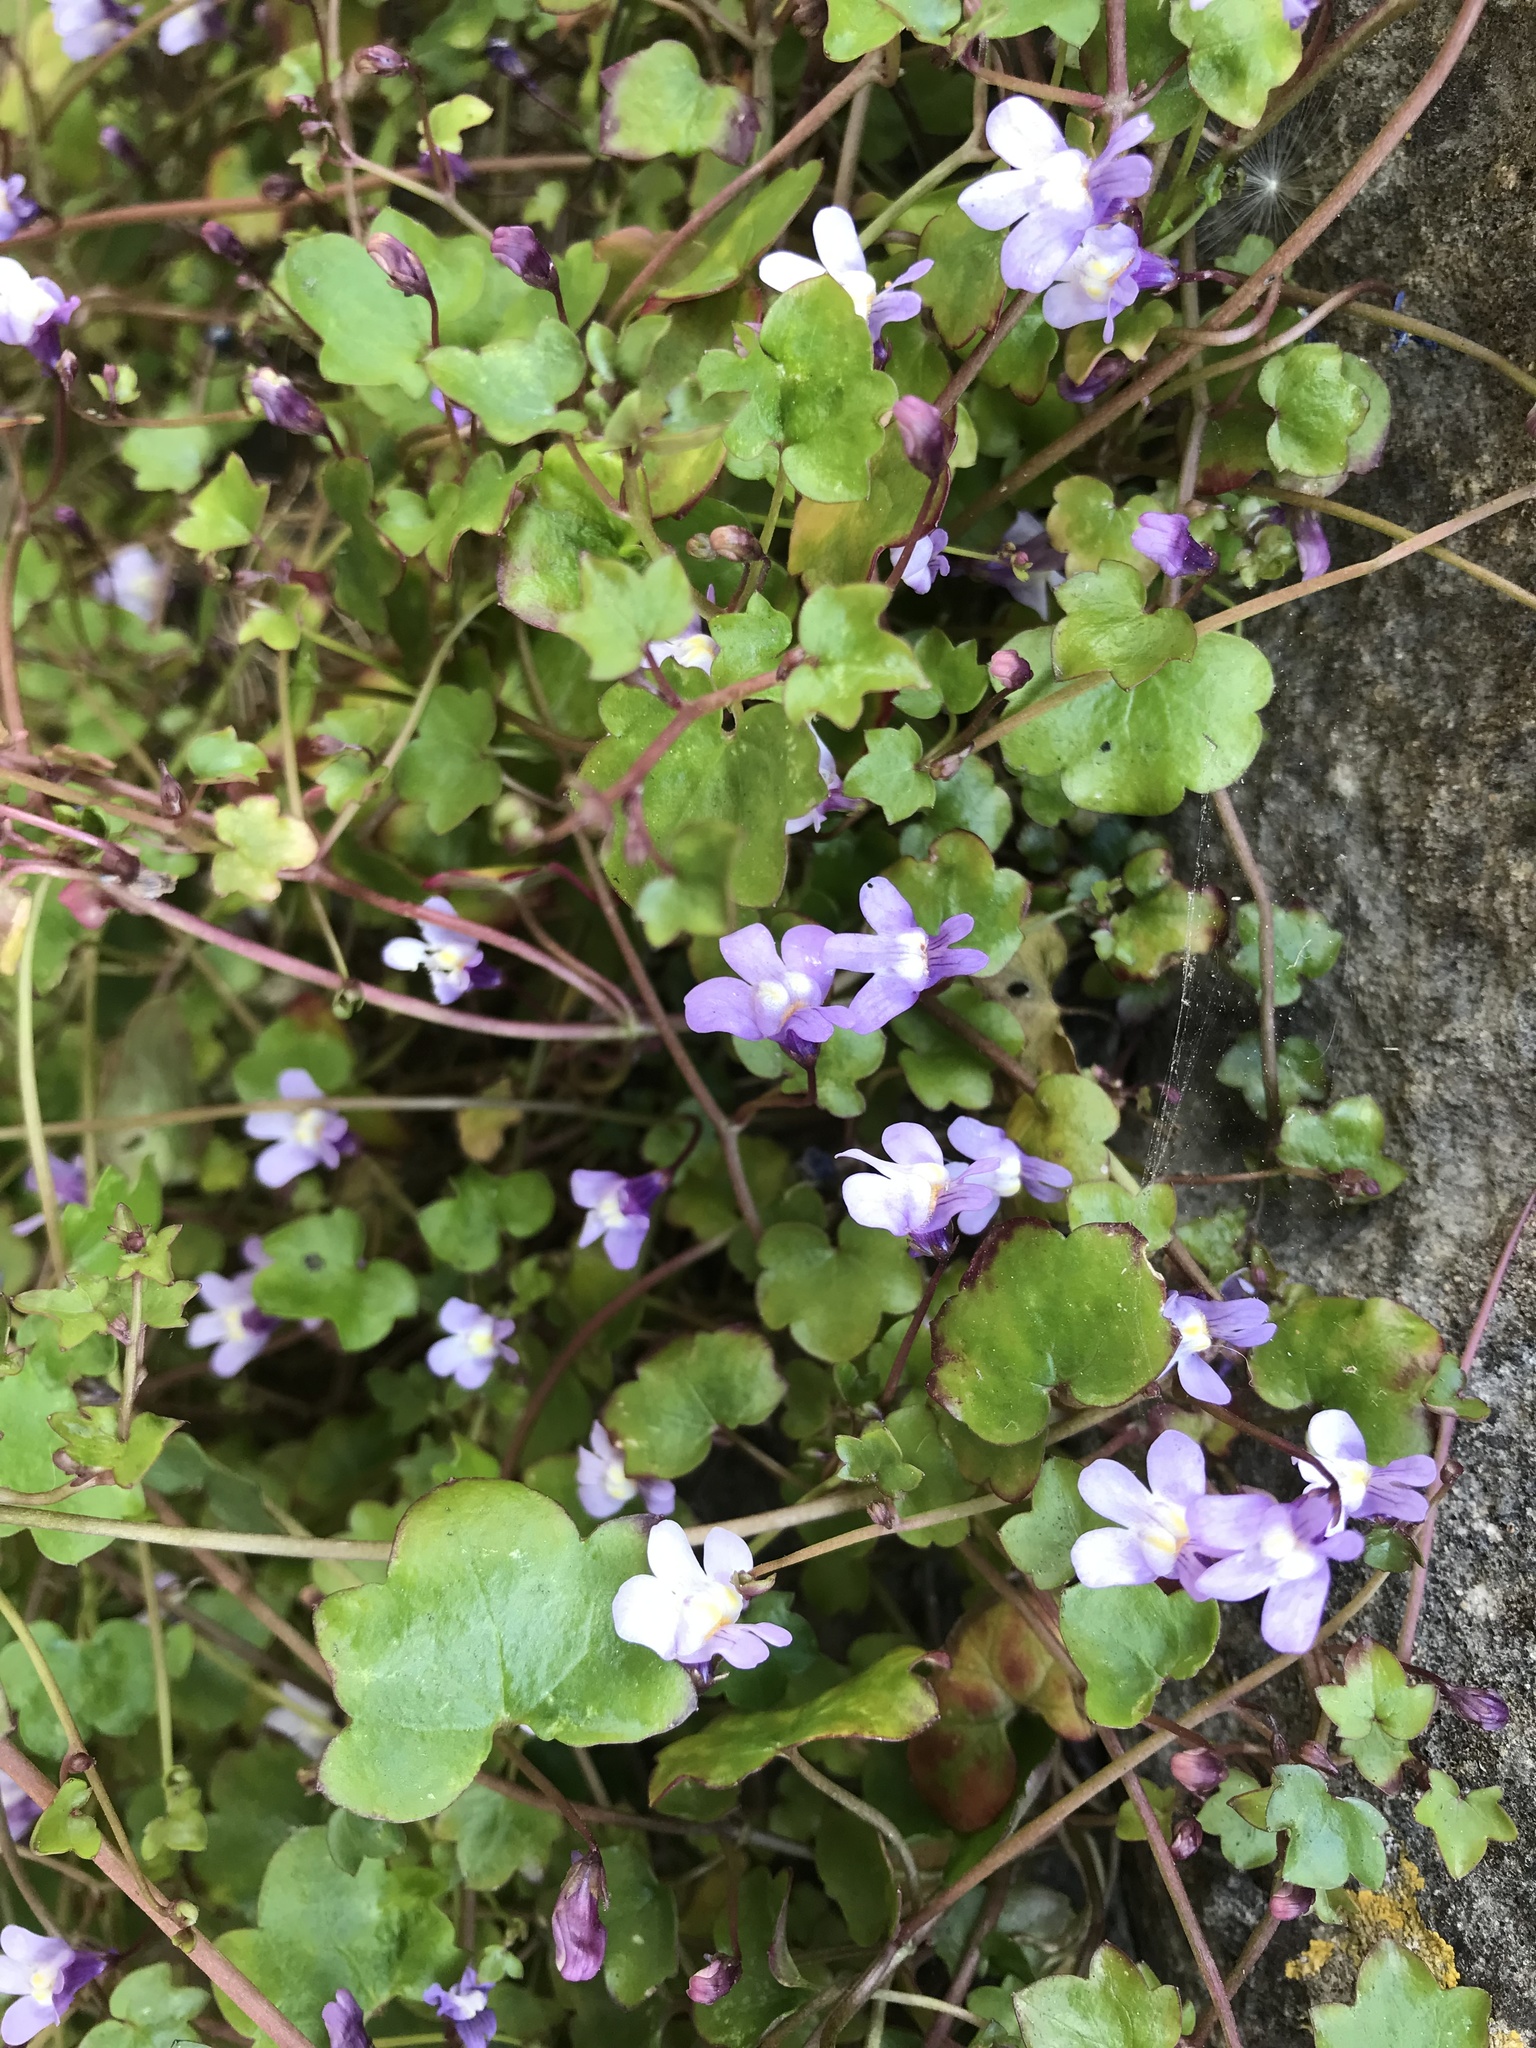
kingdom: Plantae
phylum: Tracheophyta
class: Magnoliopsida
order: Lamiales
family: Plantaginaceae
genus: Cymbalaria
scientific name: Cymbalaria muralis
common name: Ivy-leaved toadflax
